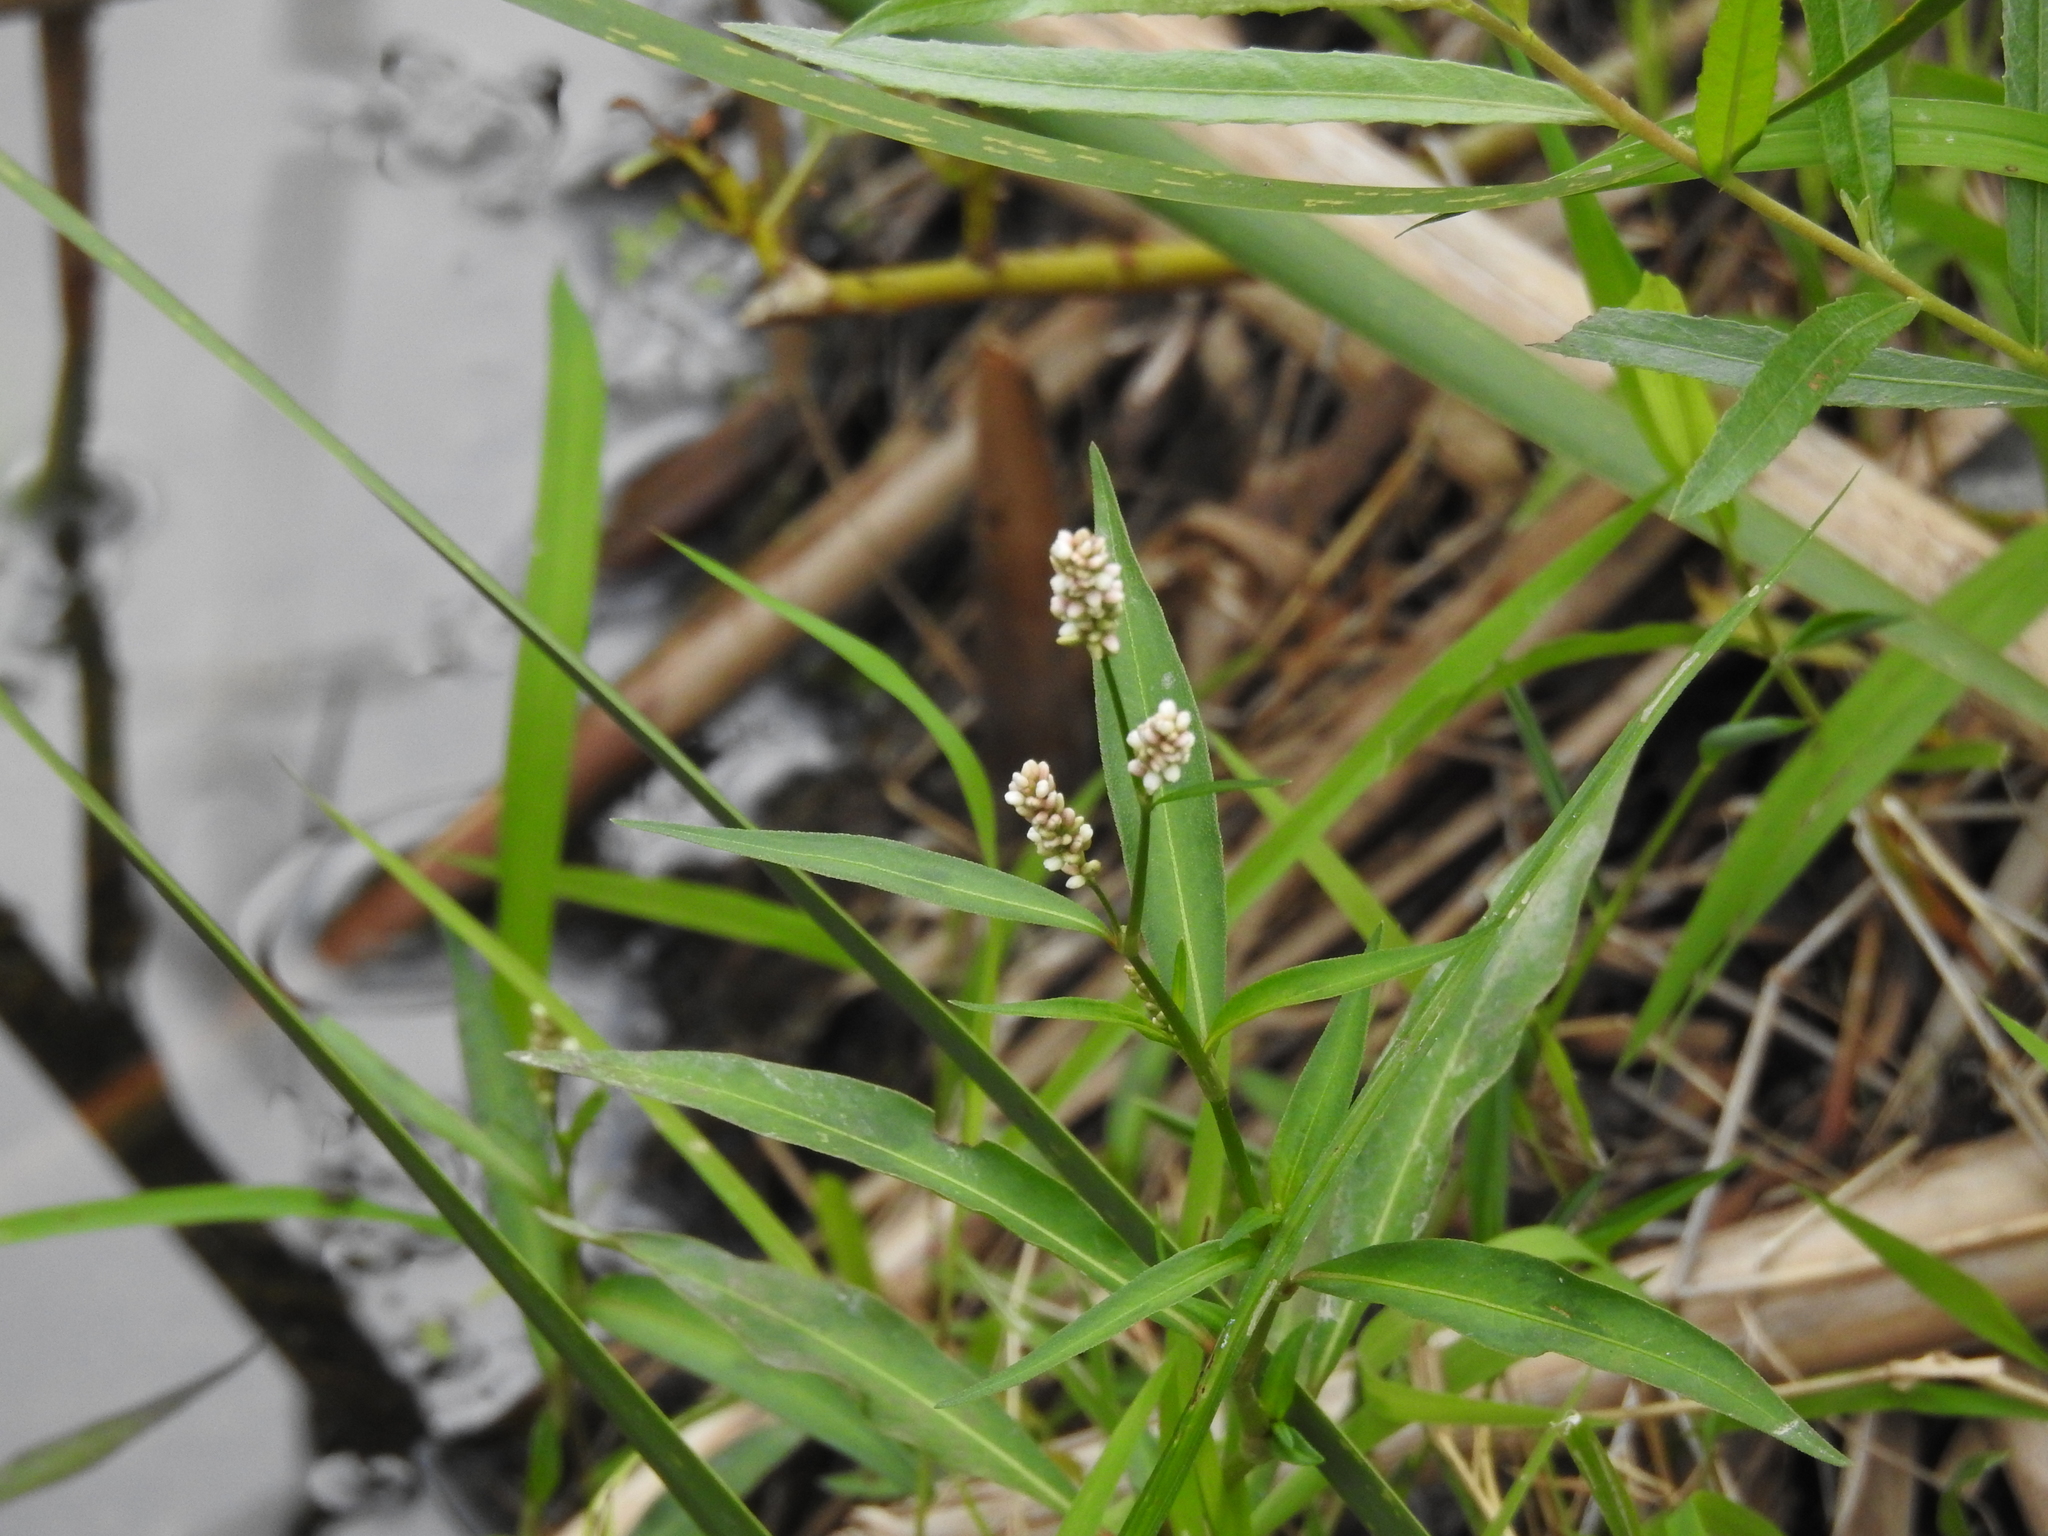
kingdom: Plantae
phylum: Tracheophyta
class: Magnoliopsida
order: Caryophyllales
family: Polygonaceae
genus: Persicaria
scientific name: Persicaria maculosa
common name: Redshank
